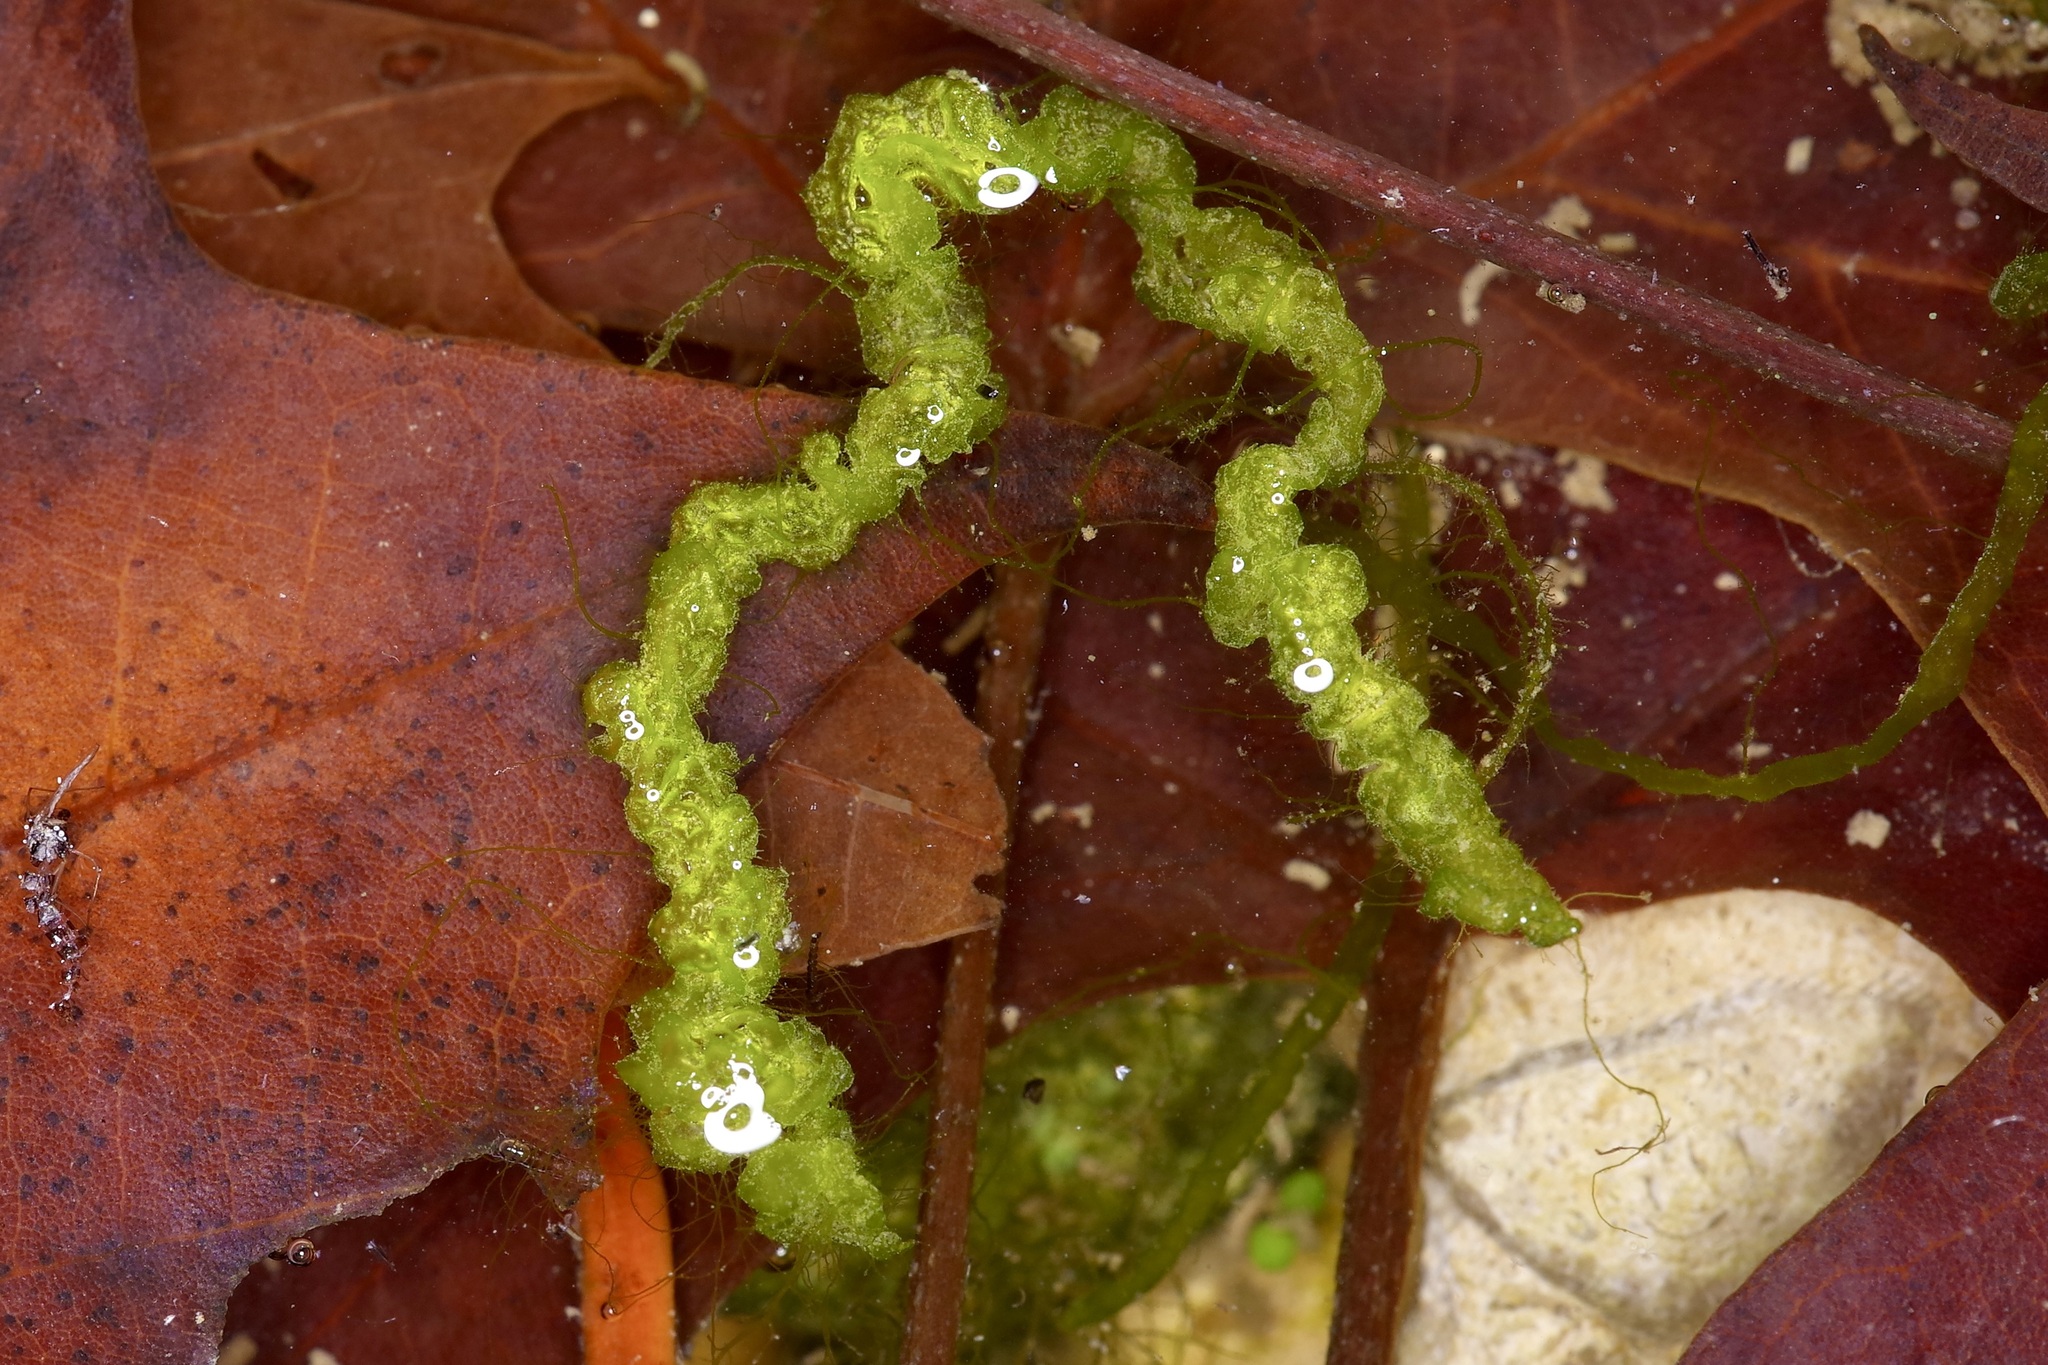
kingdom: Plantae
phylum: Chlorophyta
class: Ulvophyceae
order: Ulvales
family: Ulvaceae
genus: Ulva
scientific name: Ulva intestinalis
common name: Gut weed
